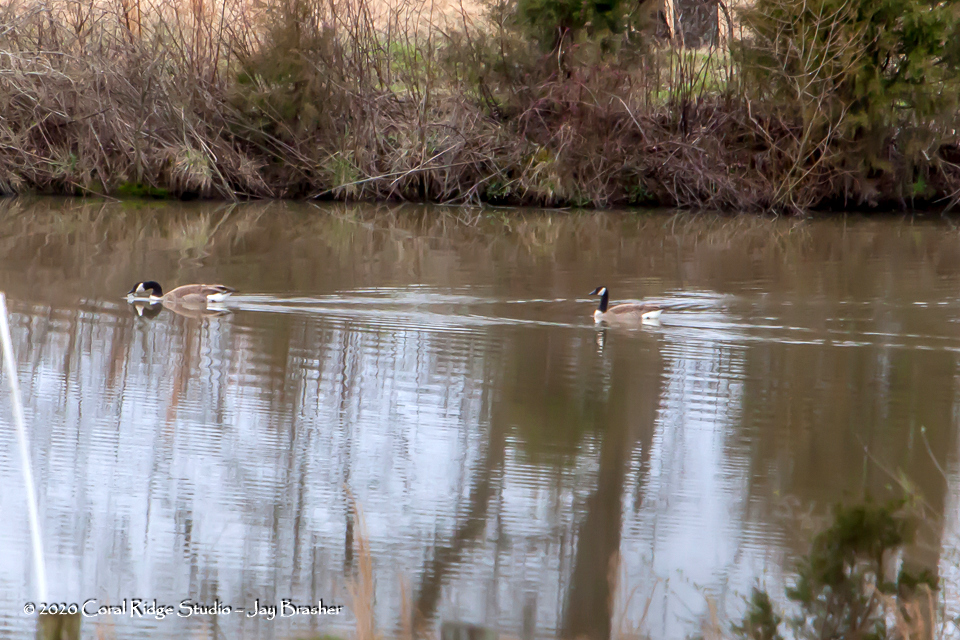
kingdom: Animalia
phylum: Chordata
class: Aves
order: Anseriformes
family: Anatidae
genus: Branta
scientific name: Branta canadensis
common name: Canada goose
